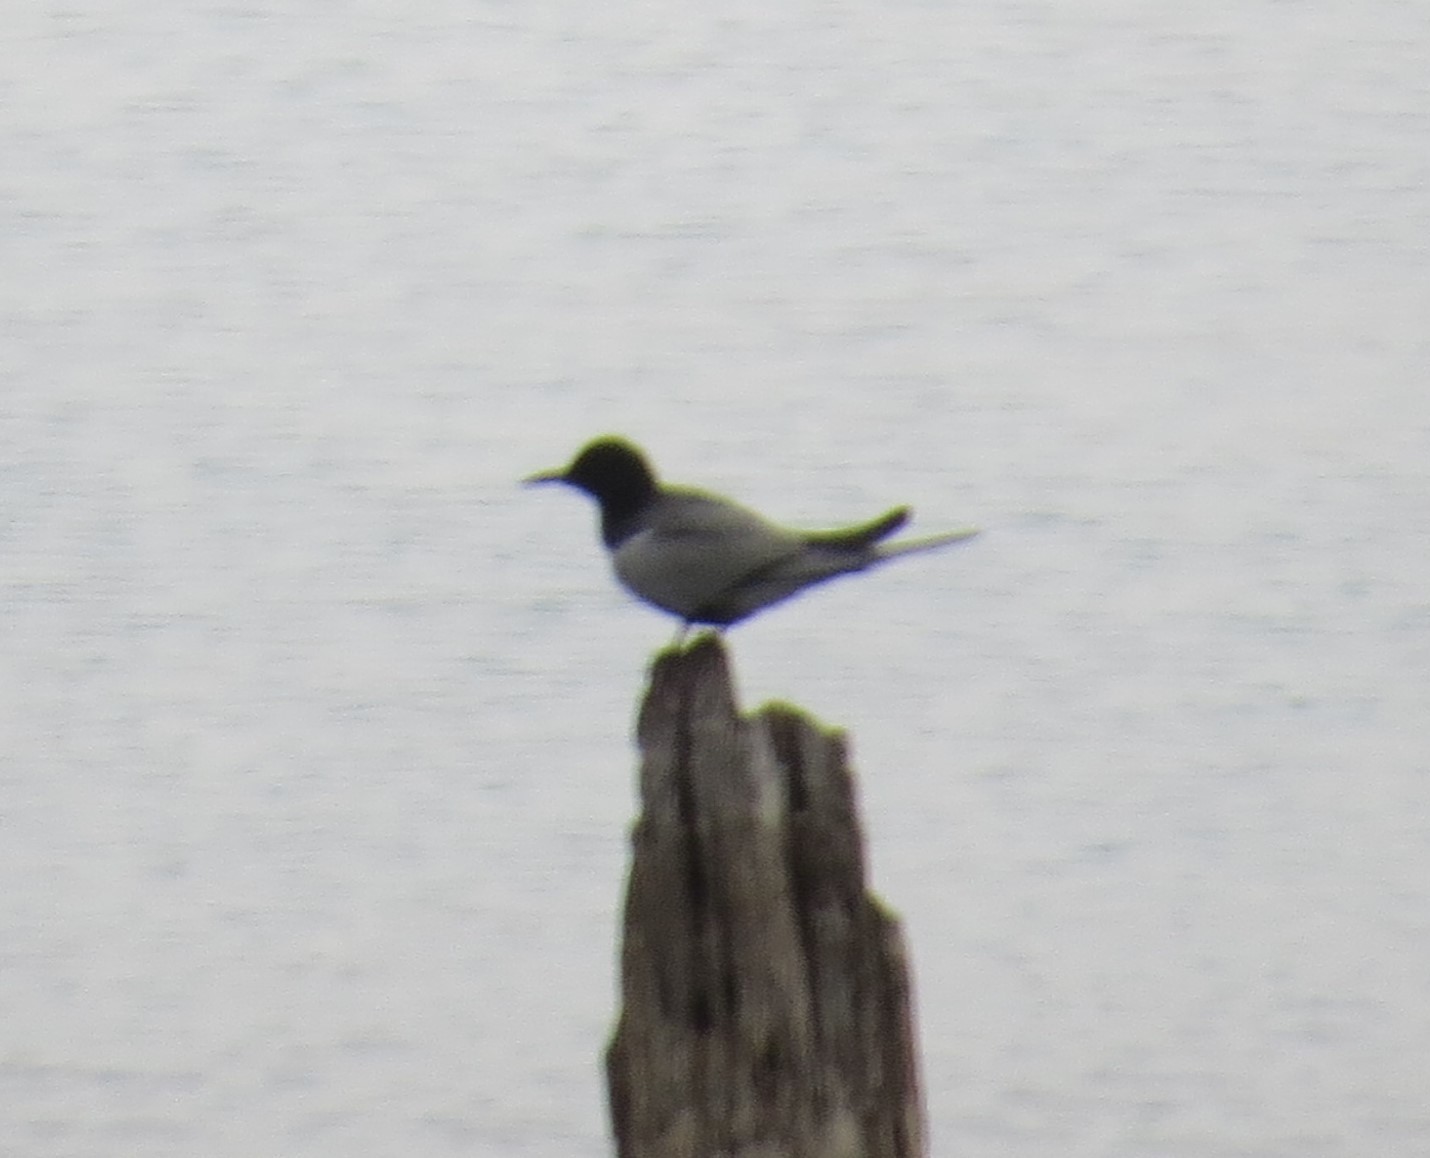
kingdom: Animalia
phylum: Chordata
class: Aves
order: Charadriiformes
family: Laridae
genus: Chlidonias
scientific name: Chlidonias niger
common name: Black tern
